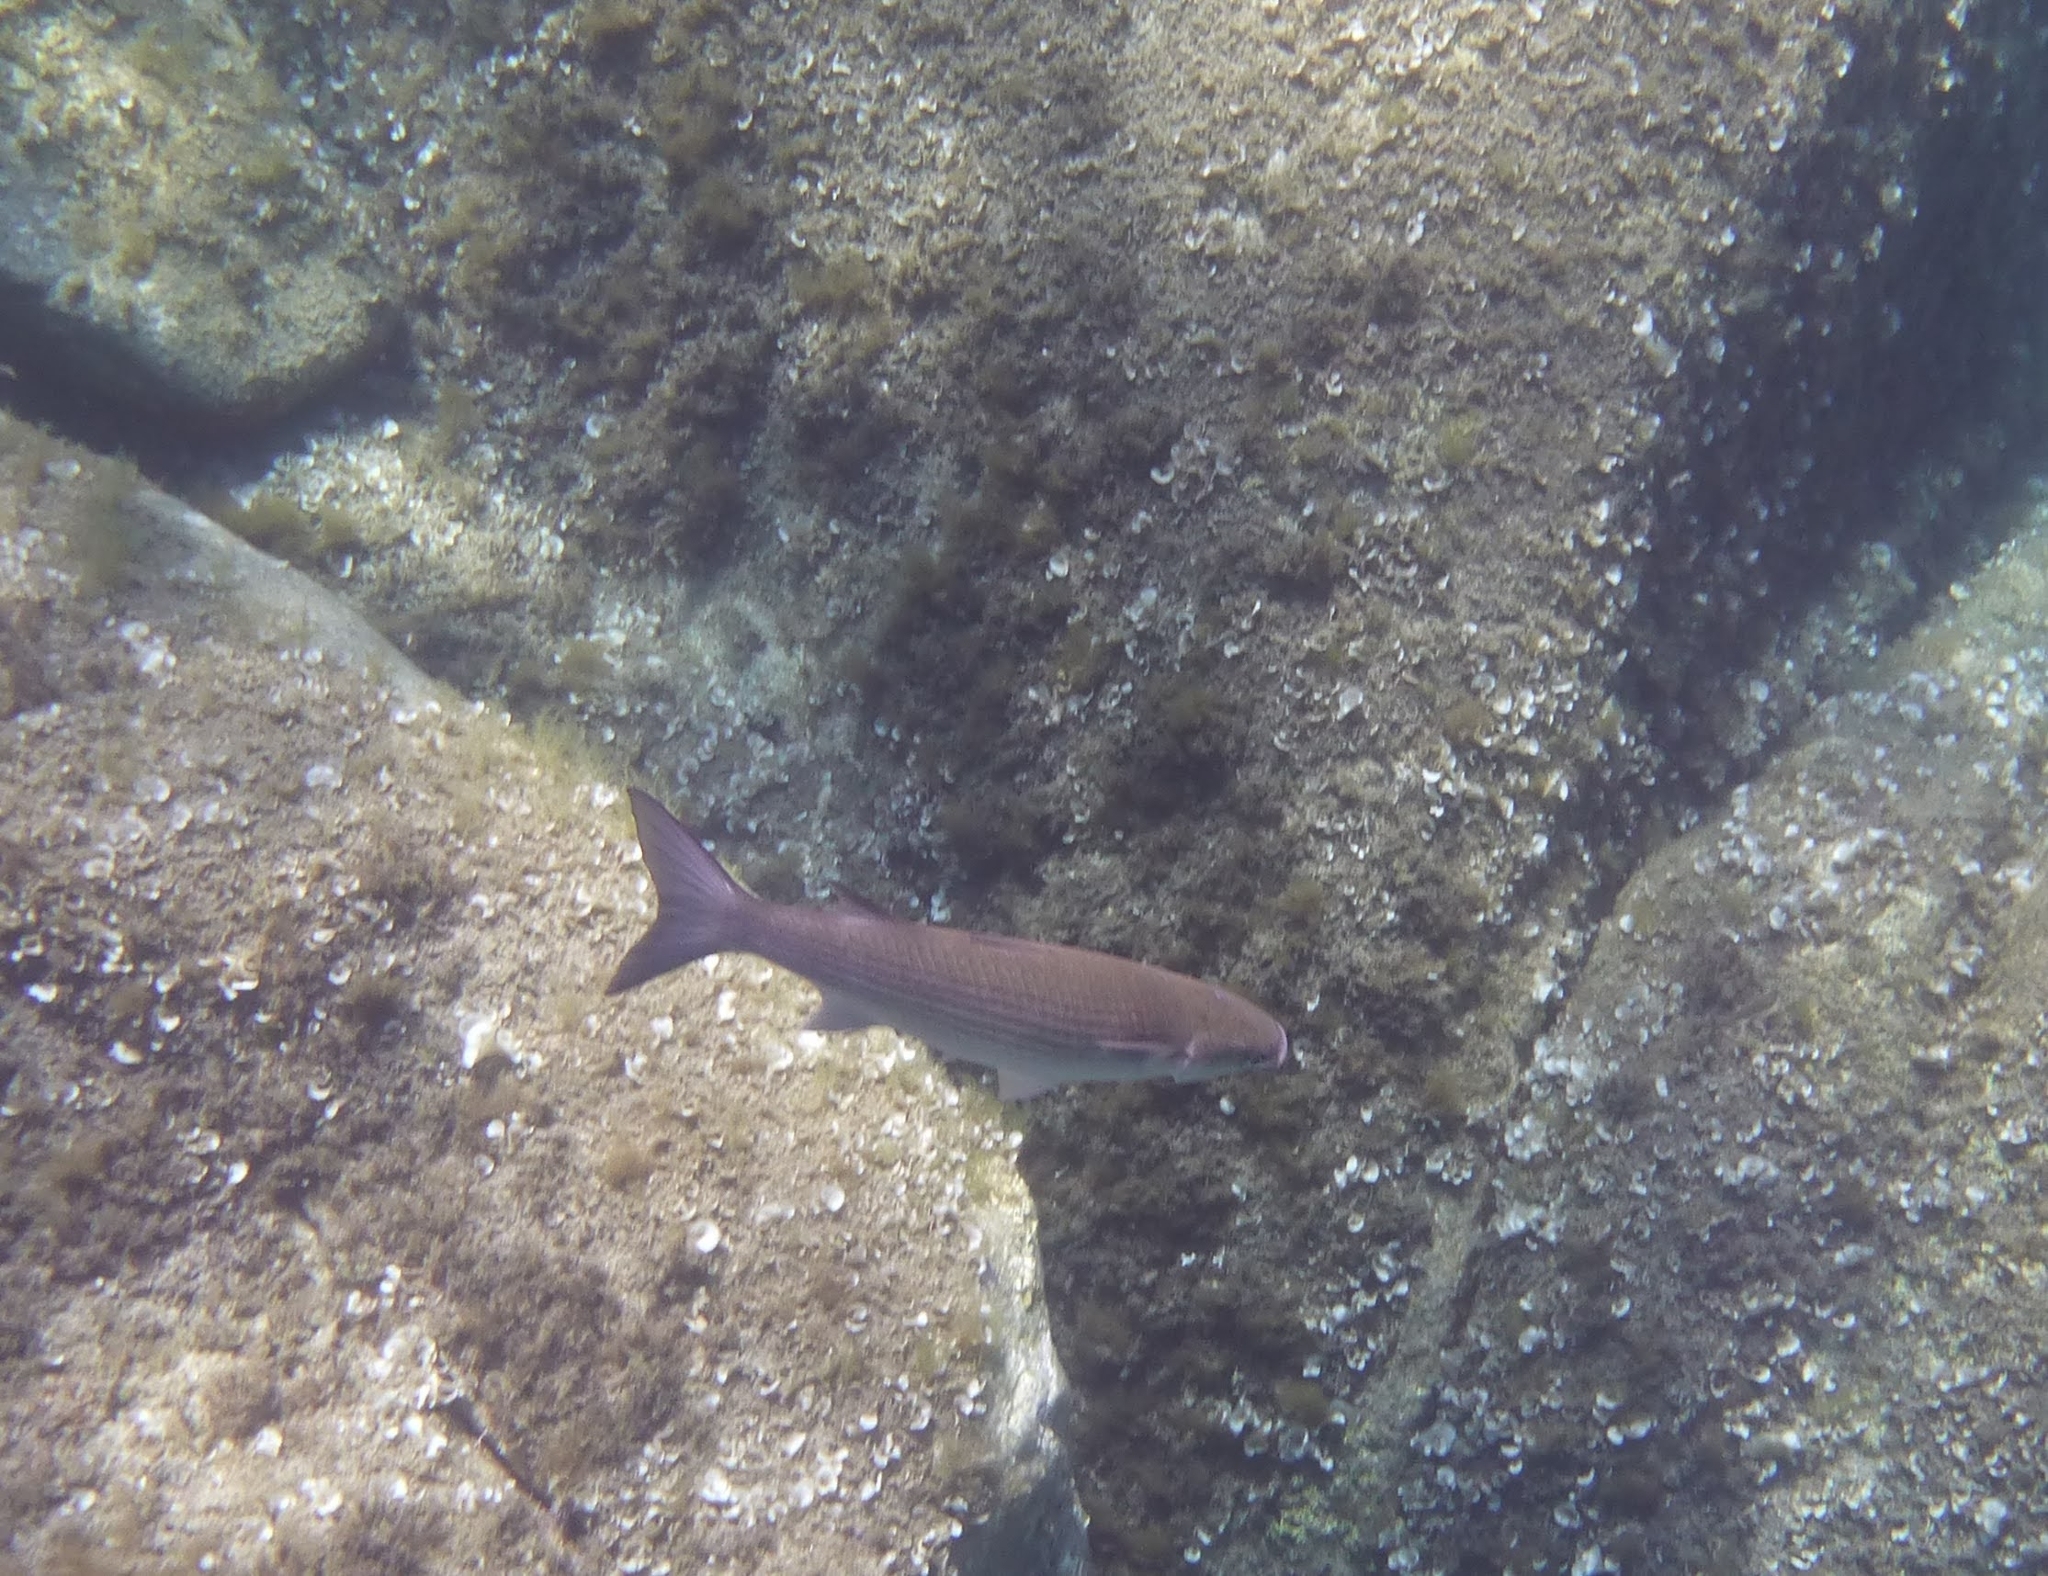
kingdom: Animalia
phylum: Chordata
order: Mugiliformes
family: Mugilidae
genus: Chelon
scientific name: Chelon labrosus
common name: Thick-lipped mullet
